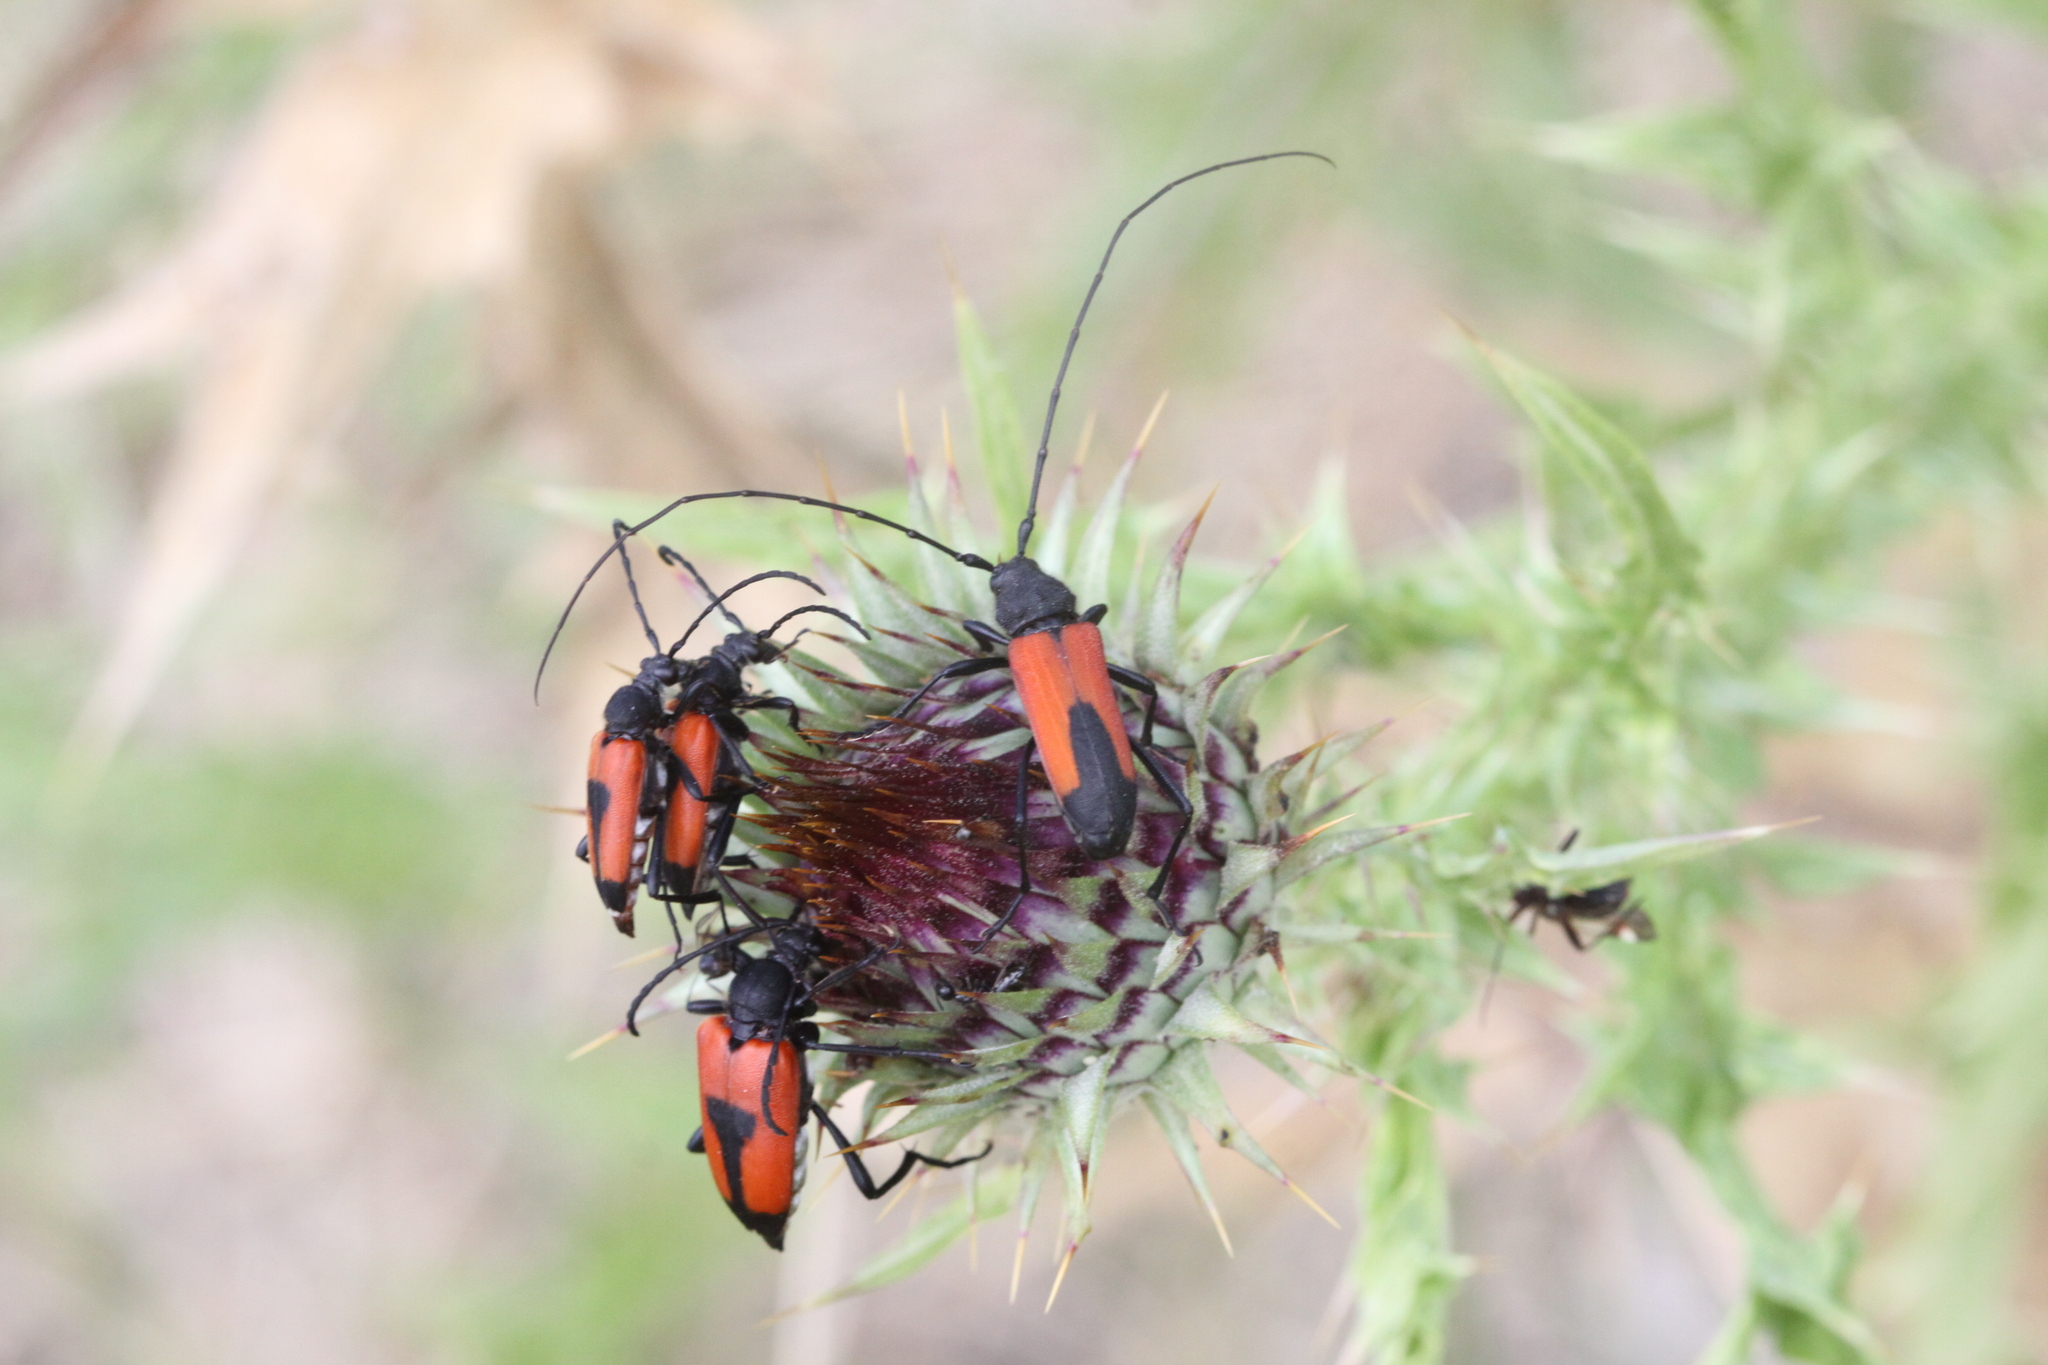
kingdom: Animalia
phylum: Arthropoda
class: Insecta
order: Coleoptera
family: Cerambycidae
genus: Purpuricenus
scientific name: Purpuricenus budensis
